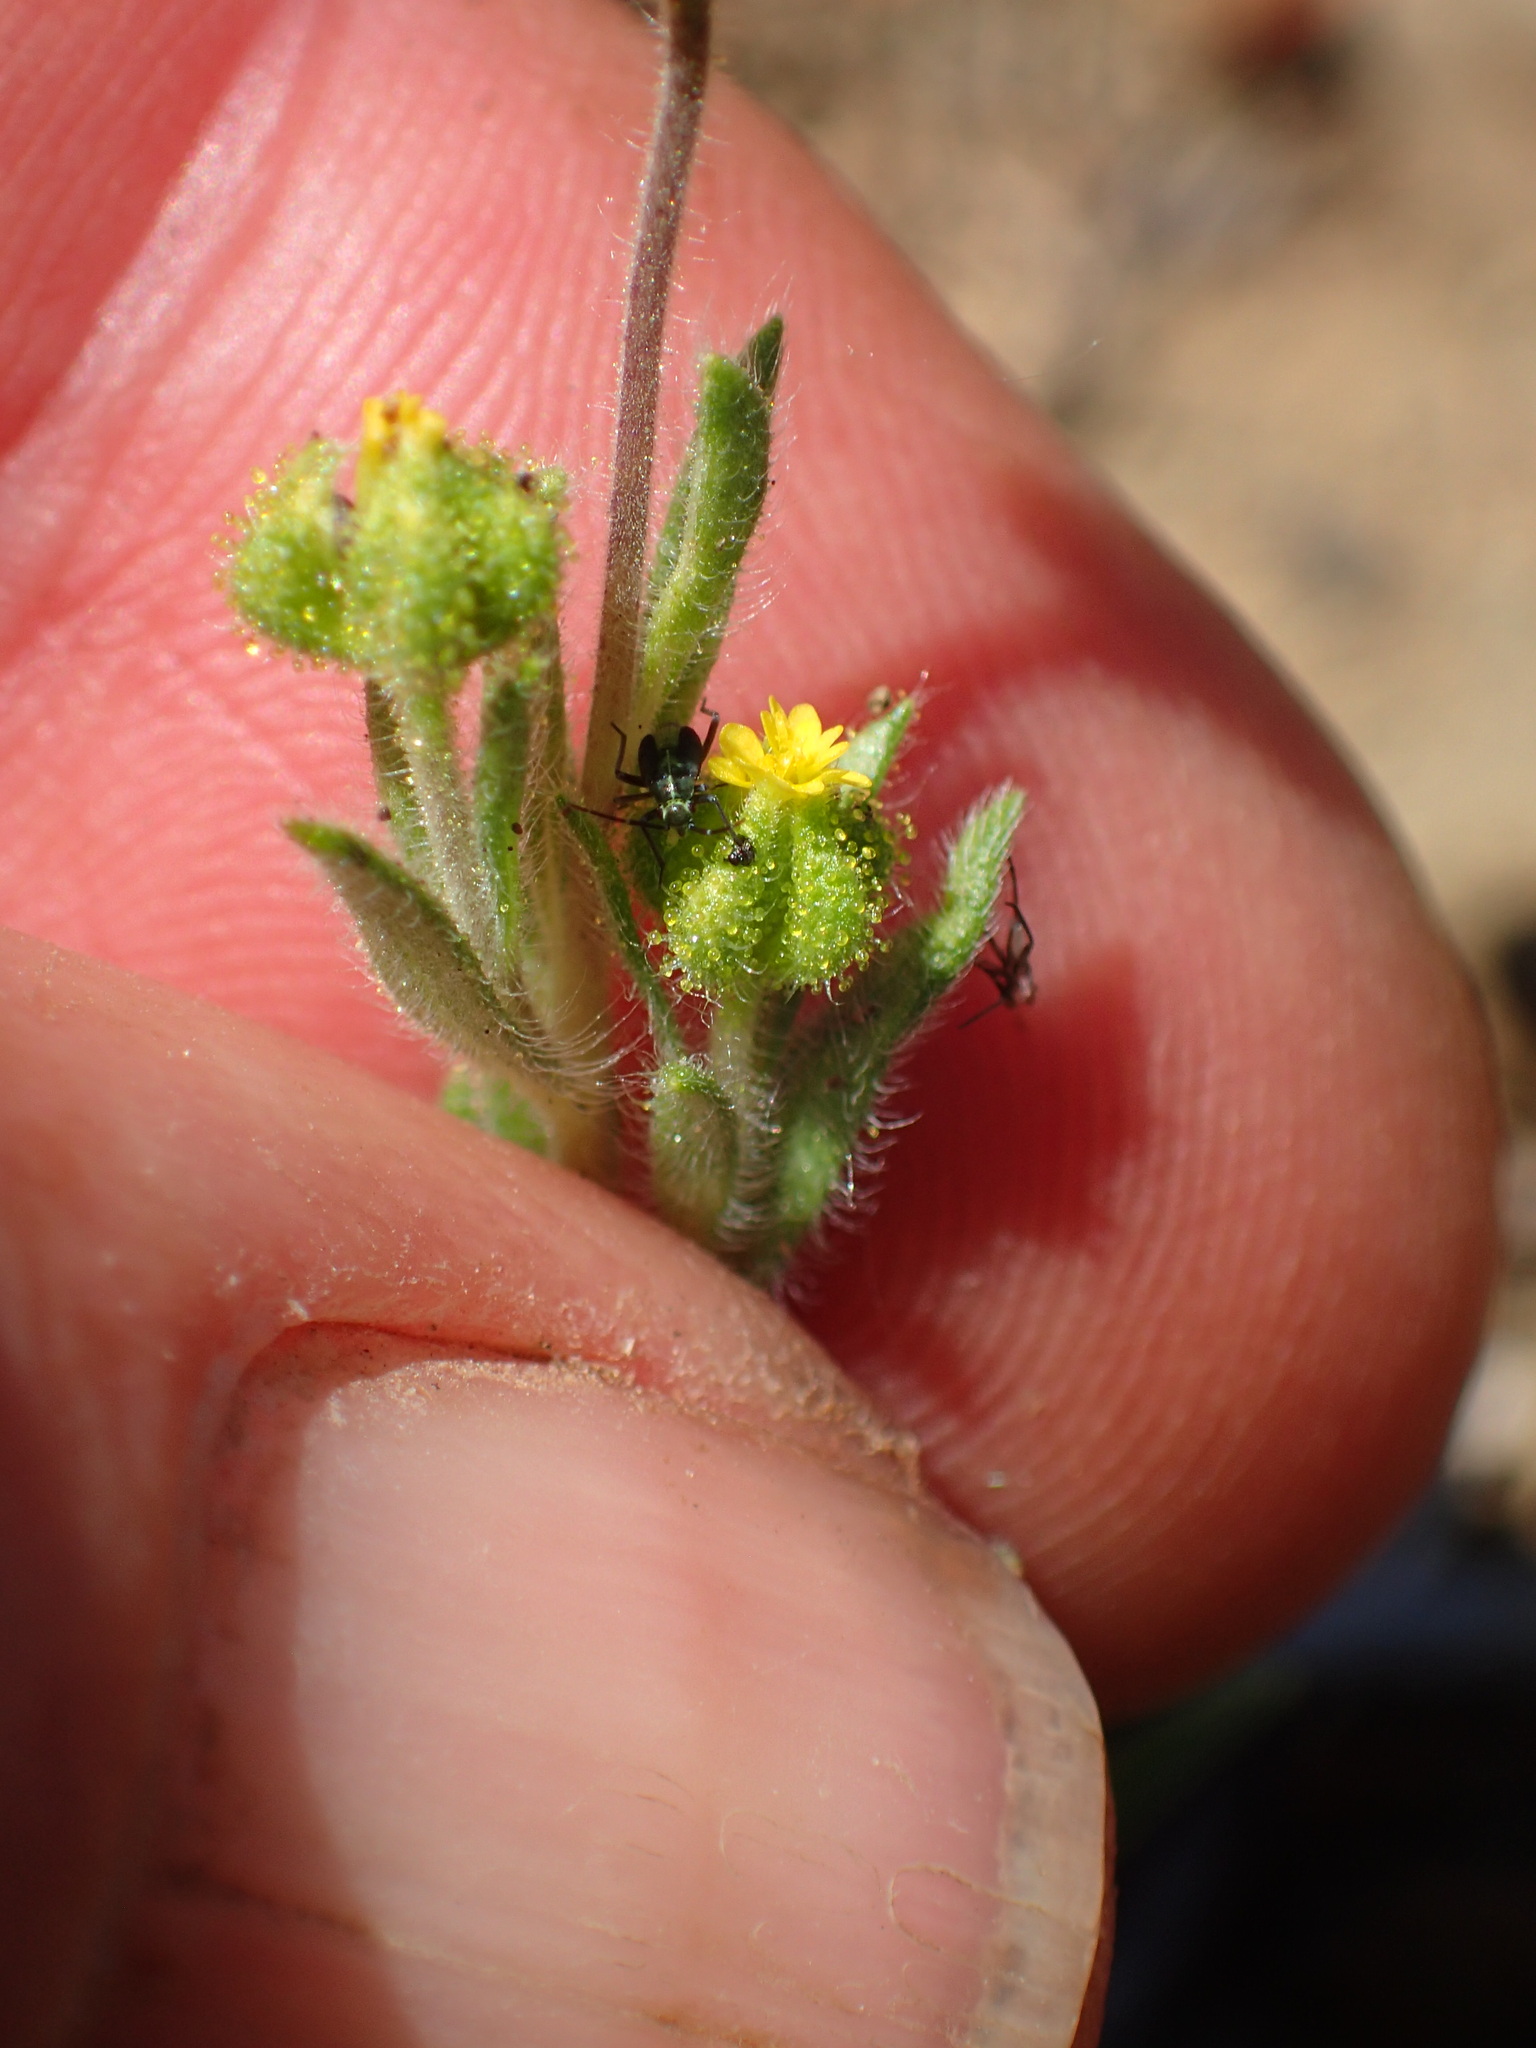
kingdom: Plantae
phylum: Tracheophyta
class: Magnoliopsida
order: Asterales
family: Asteraceae
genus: Madia
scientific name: Madia exigua
